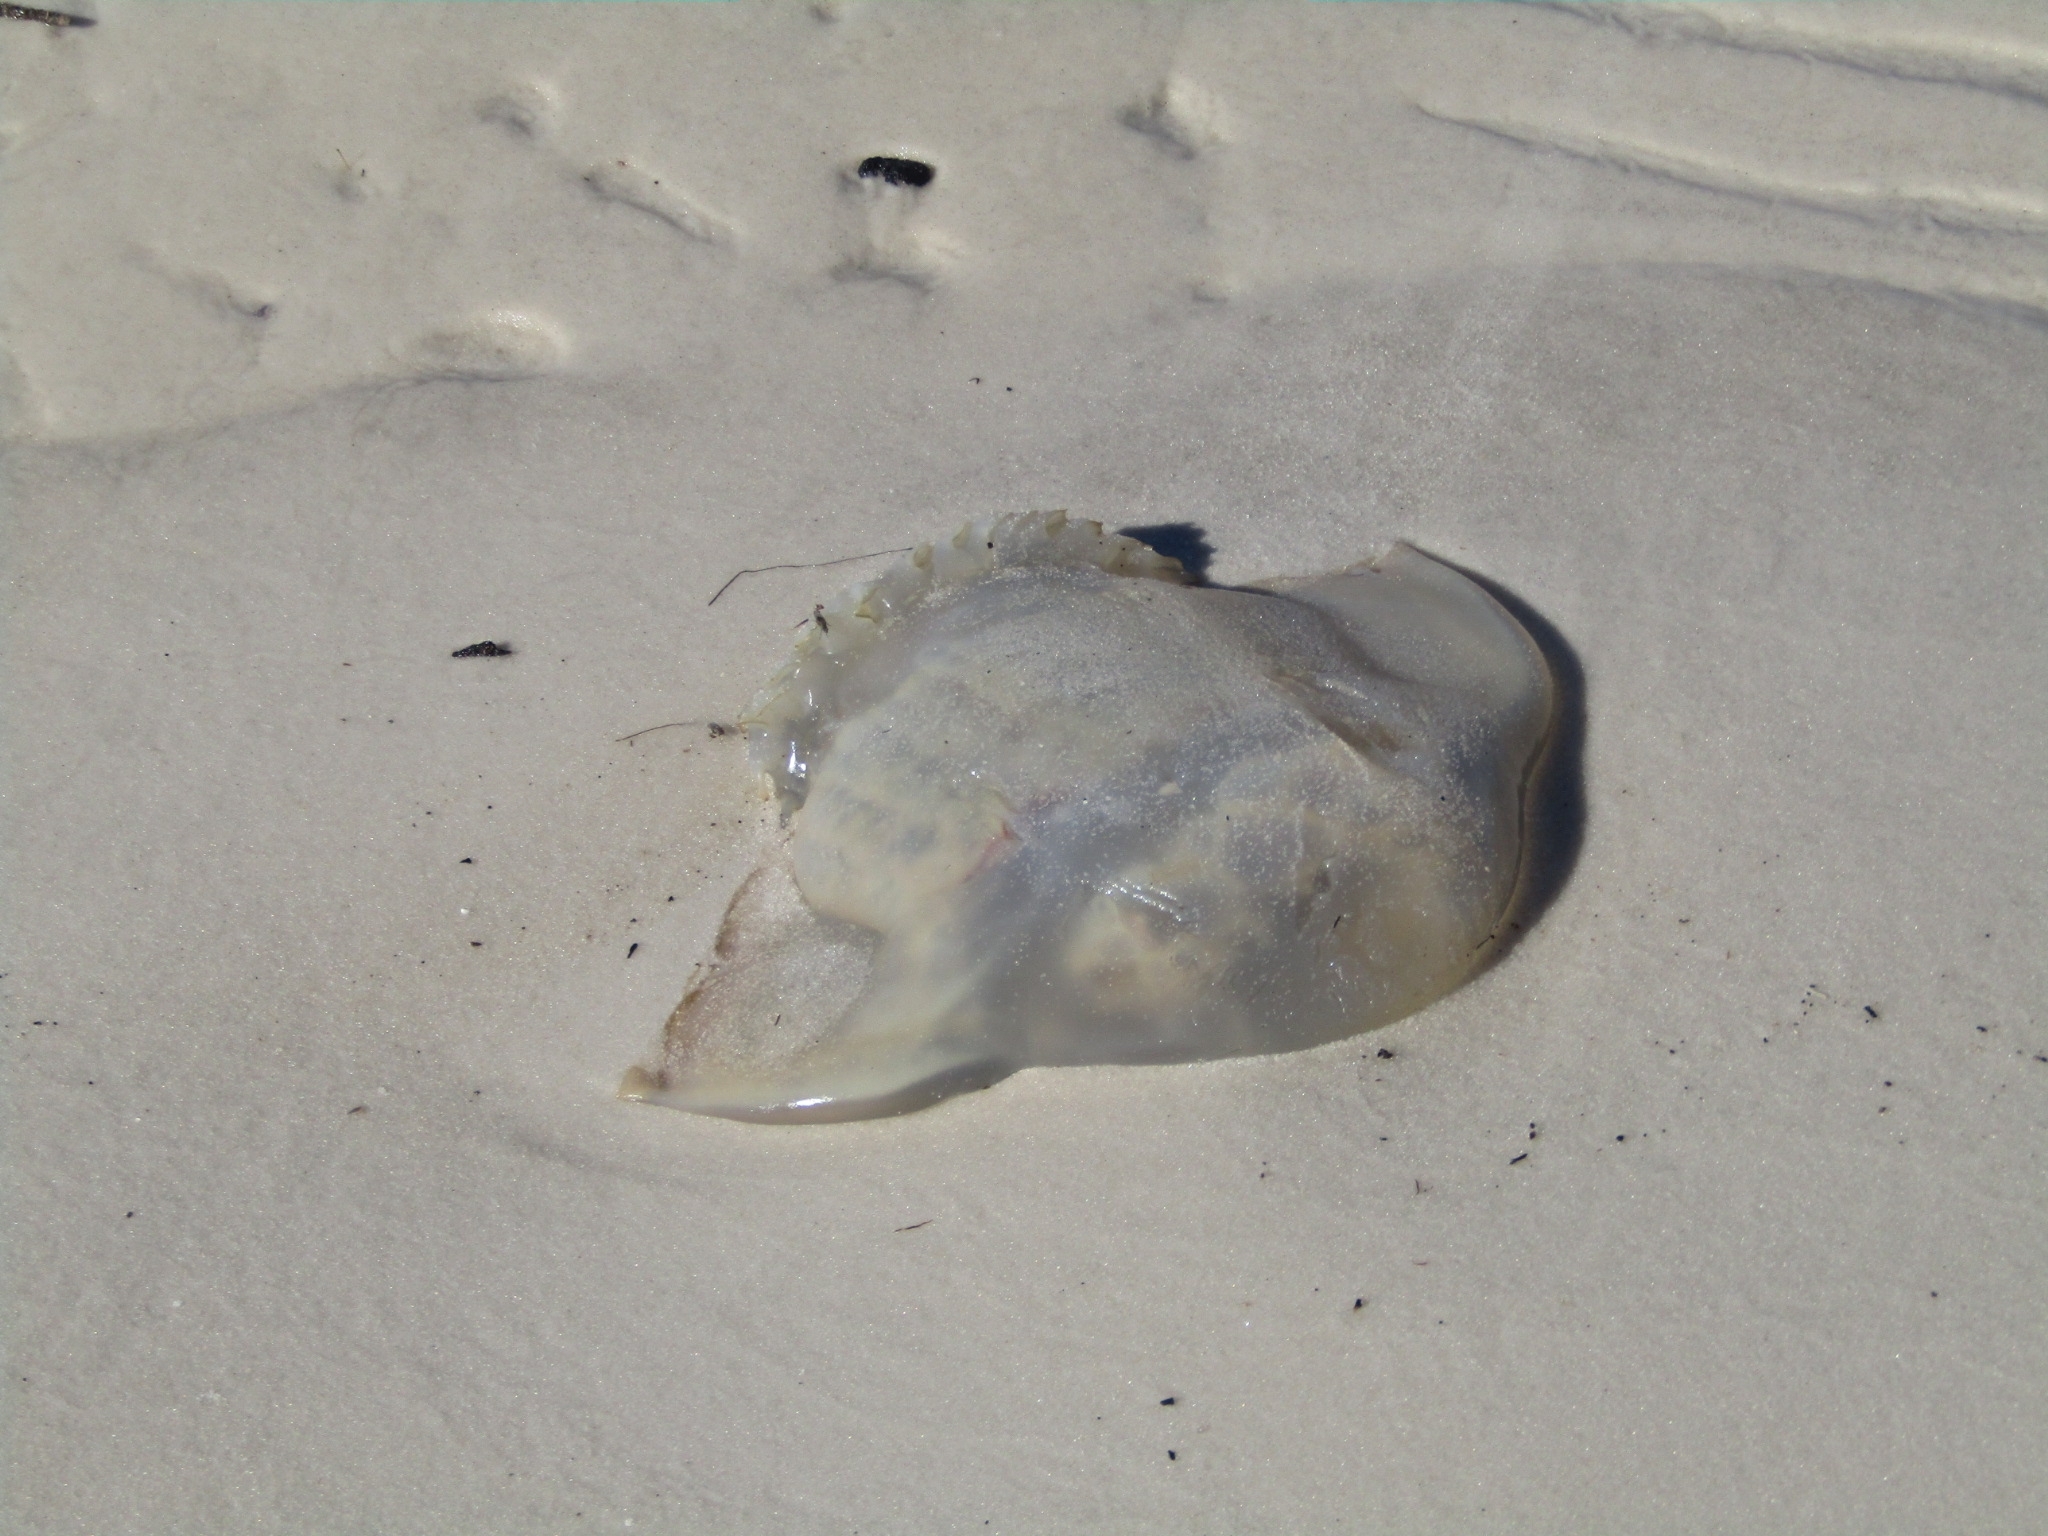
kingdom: Animalia
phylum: Cnidaria
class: Scyphozoa
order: Rhizostomeae
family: Stomolophidae
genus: Stomolophus
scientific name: Stomolophus meleagris
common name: Cabbagehead
